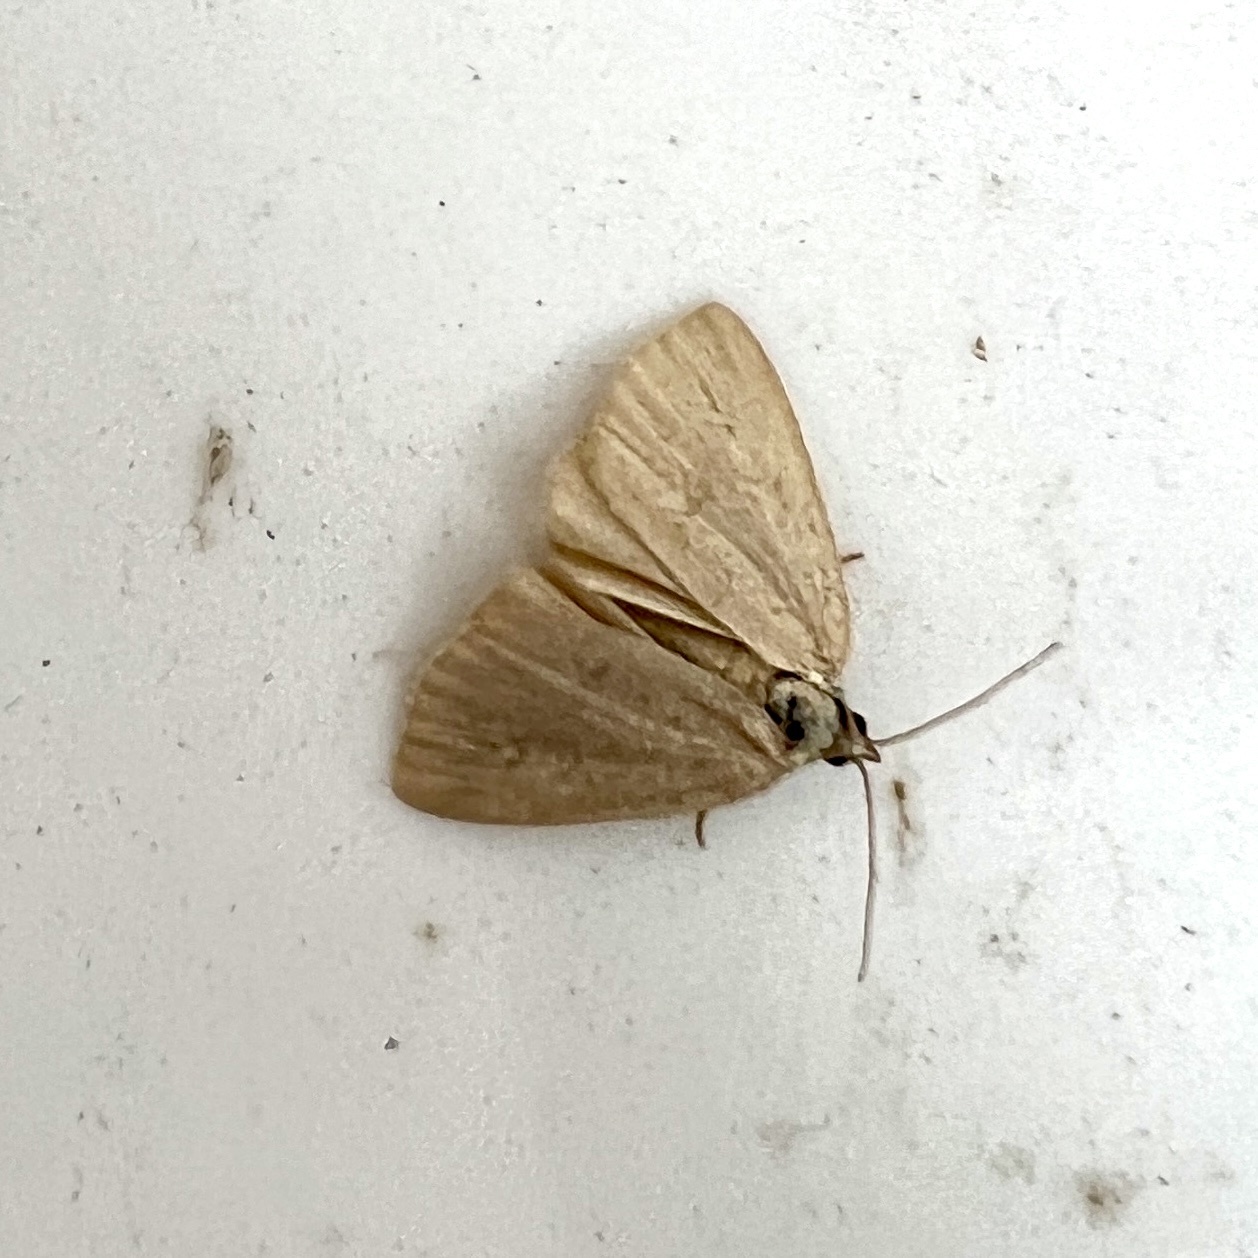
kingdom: Animalia
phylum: Arthropoda
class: Insecta
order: Lepidoptera
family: Noctuidae
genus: Protodeltote
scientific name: Protodeltote albidula
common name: Pale glyph
